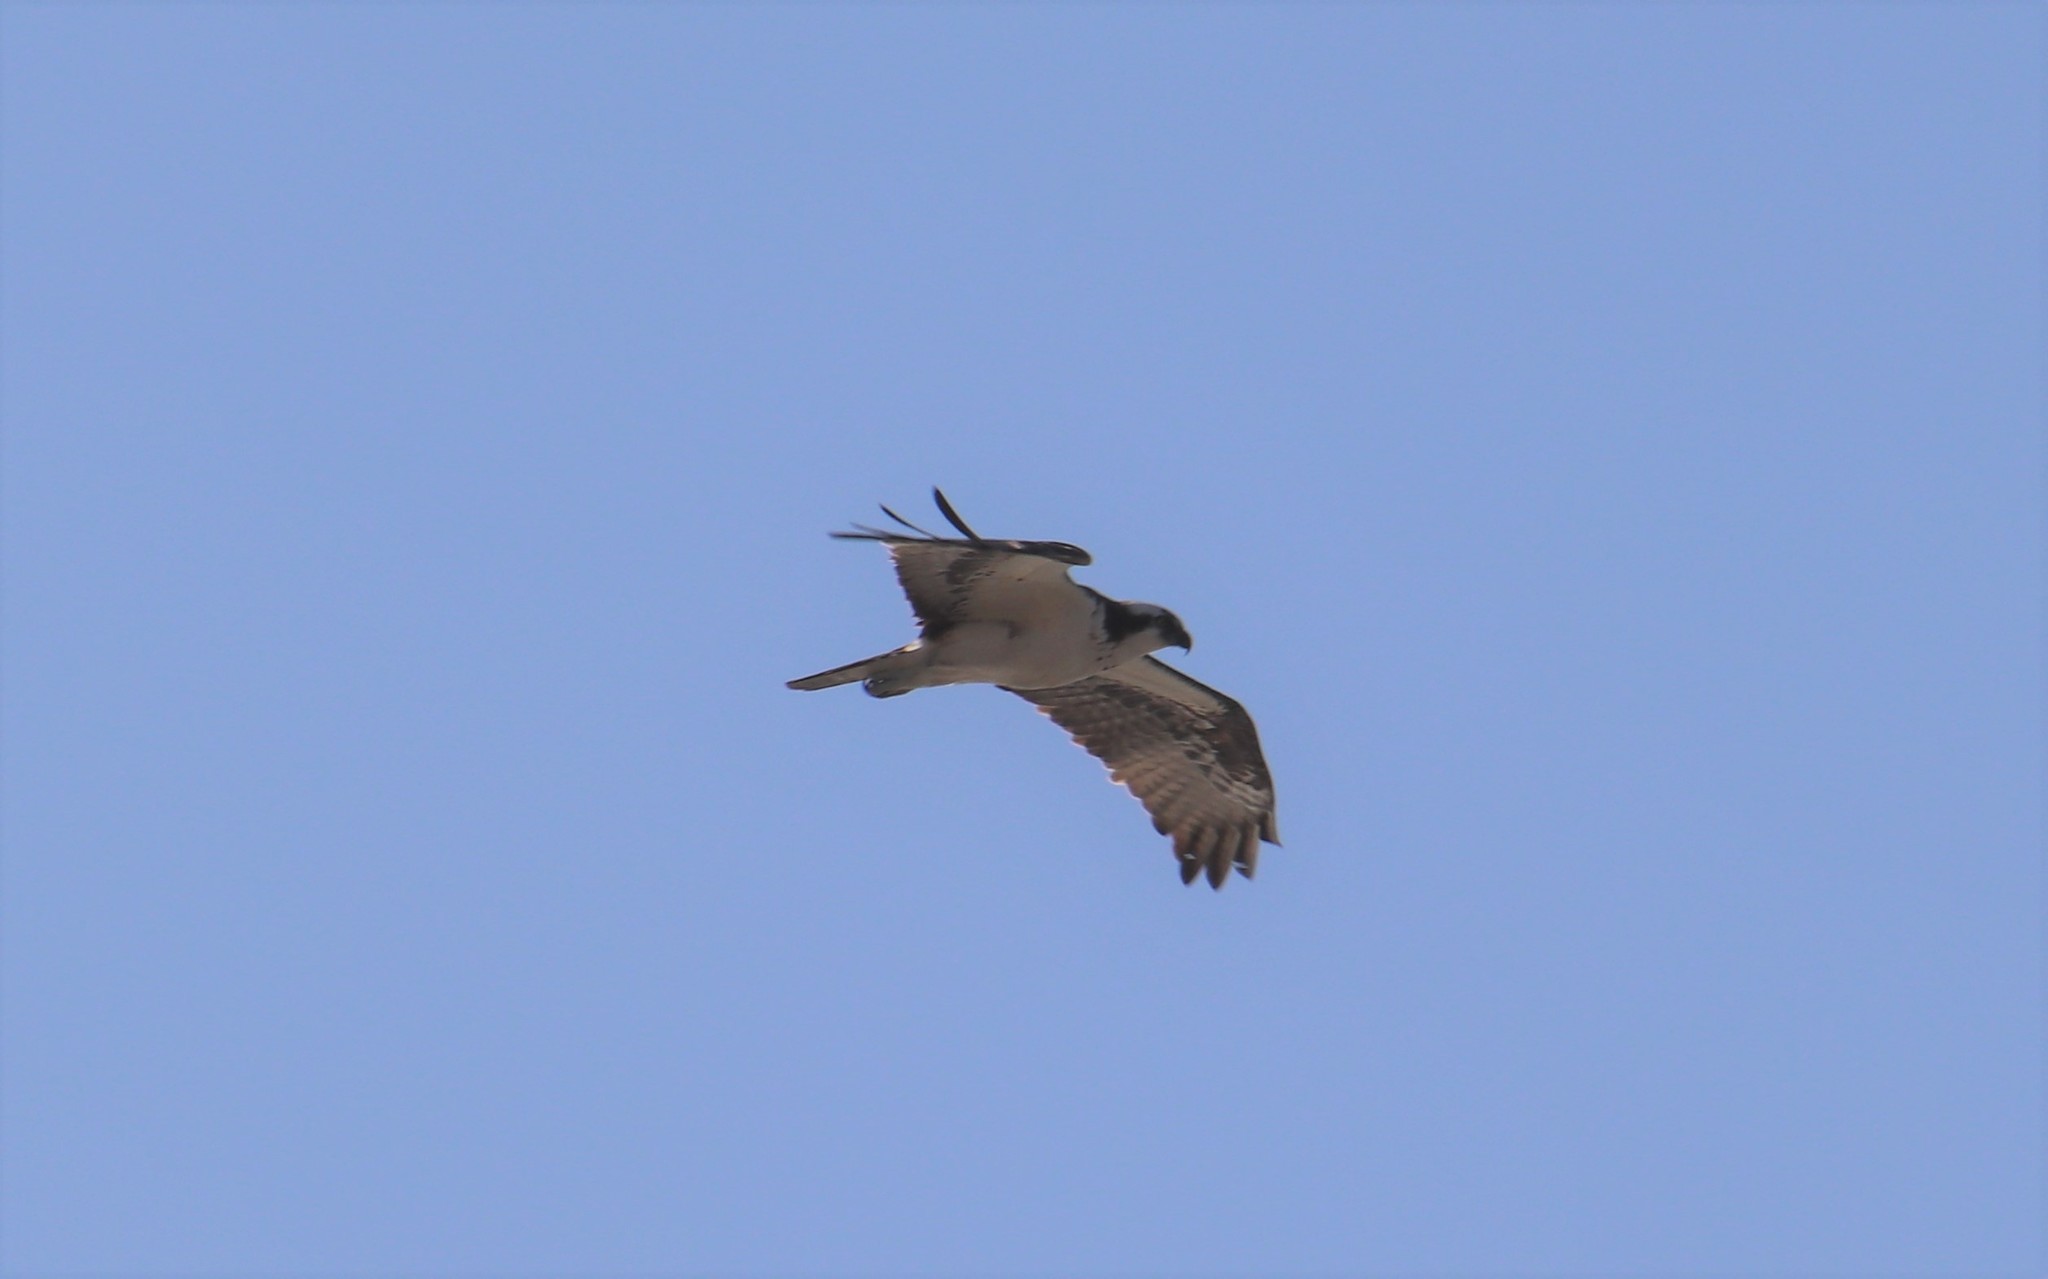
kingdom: Animalia
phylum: Chordata
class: Aves
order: Accipitriformes
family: Pandionidae
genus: Pandion
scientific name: Pandion haliaetus
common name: Osprey
